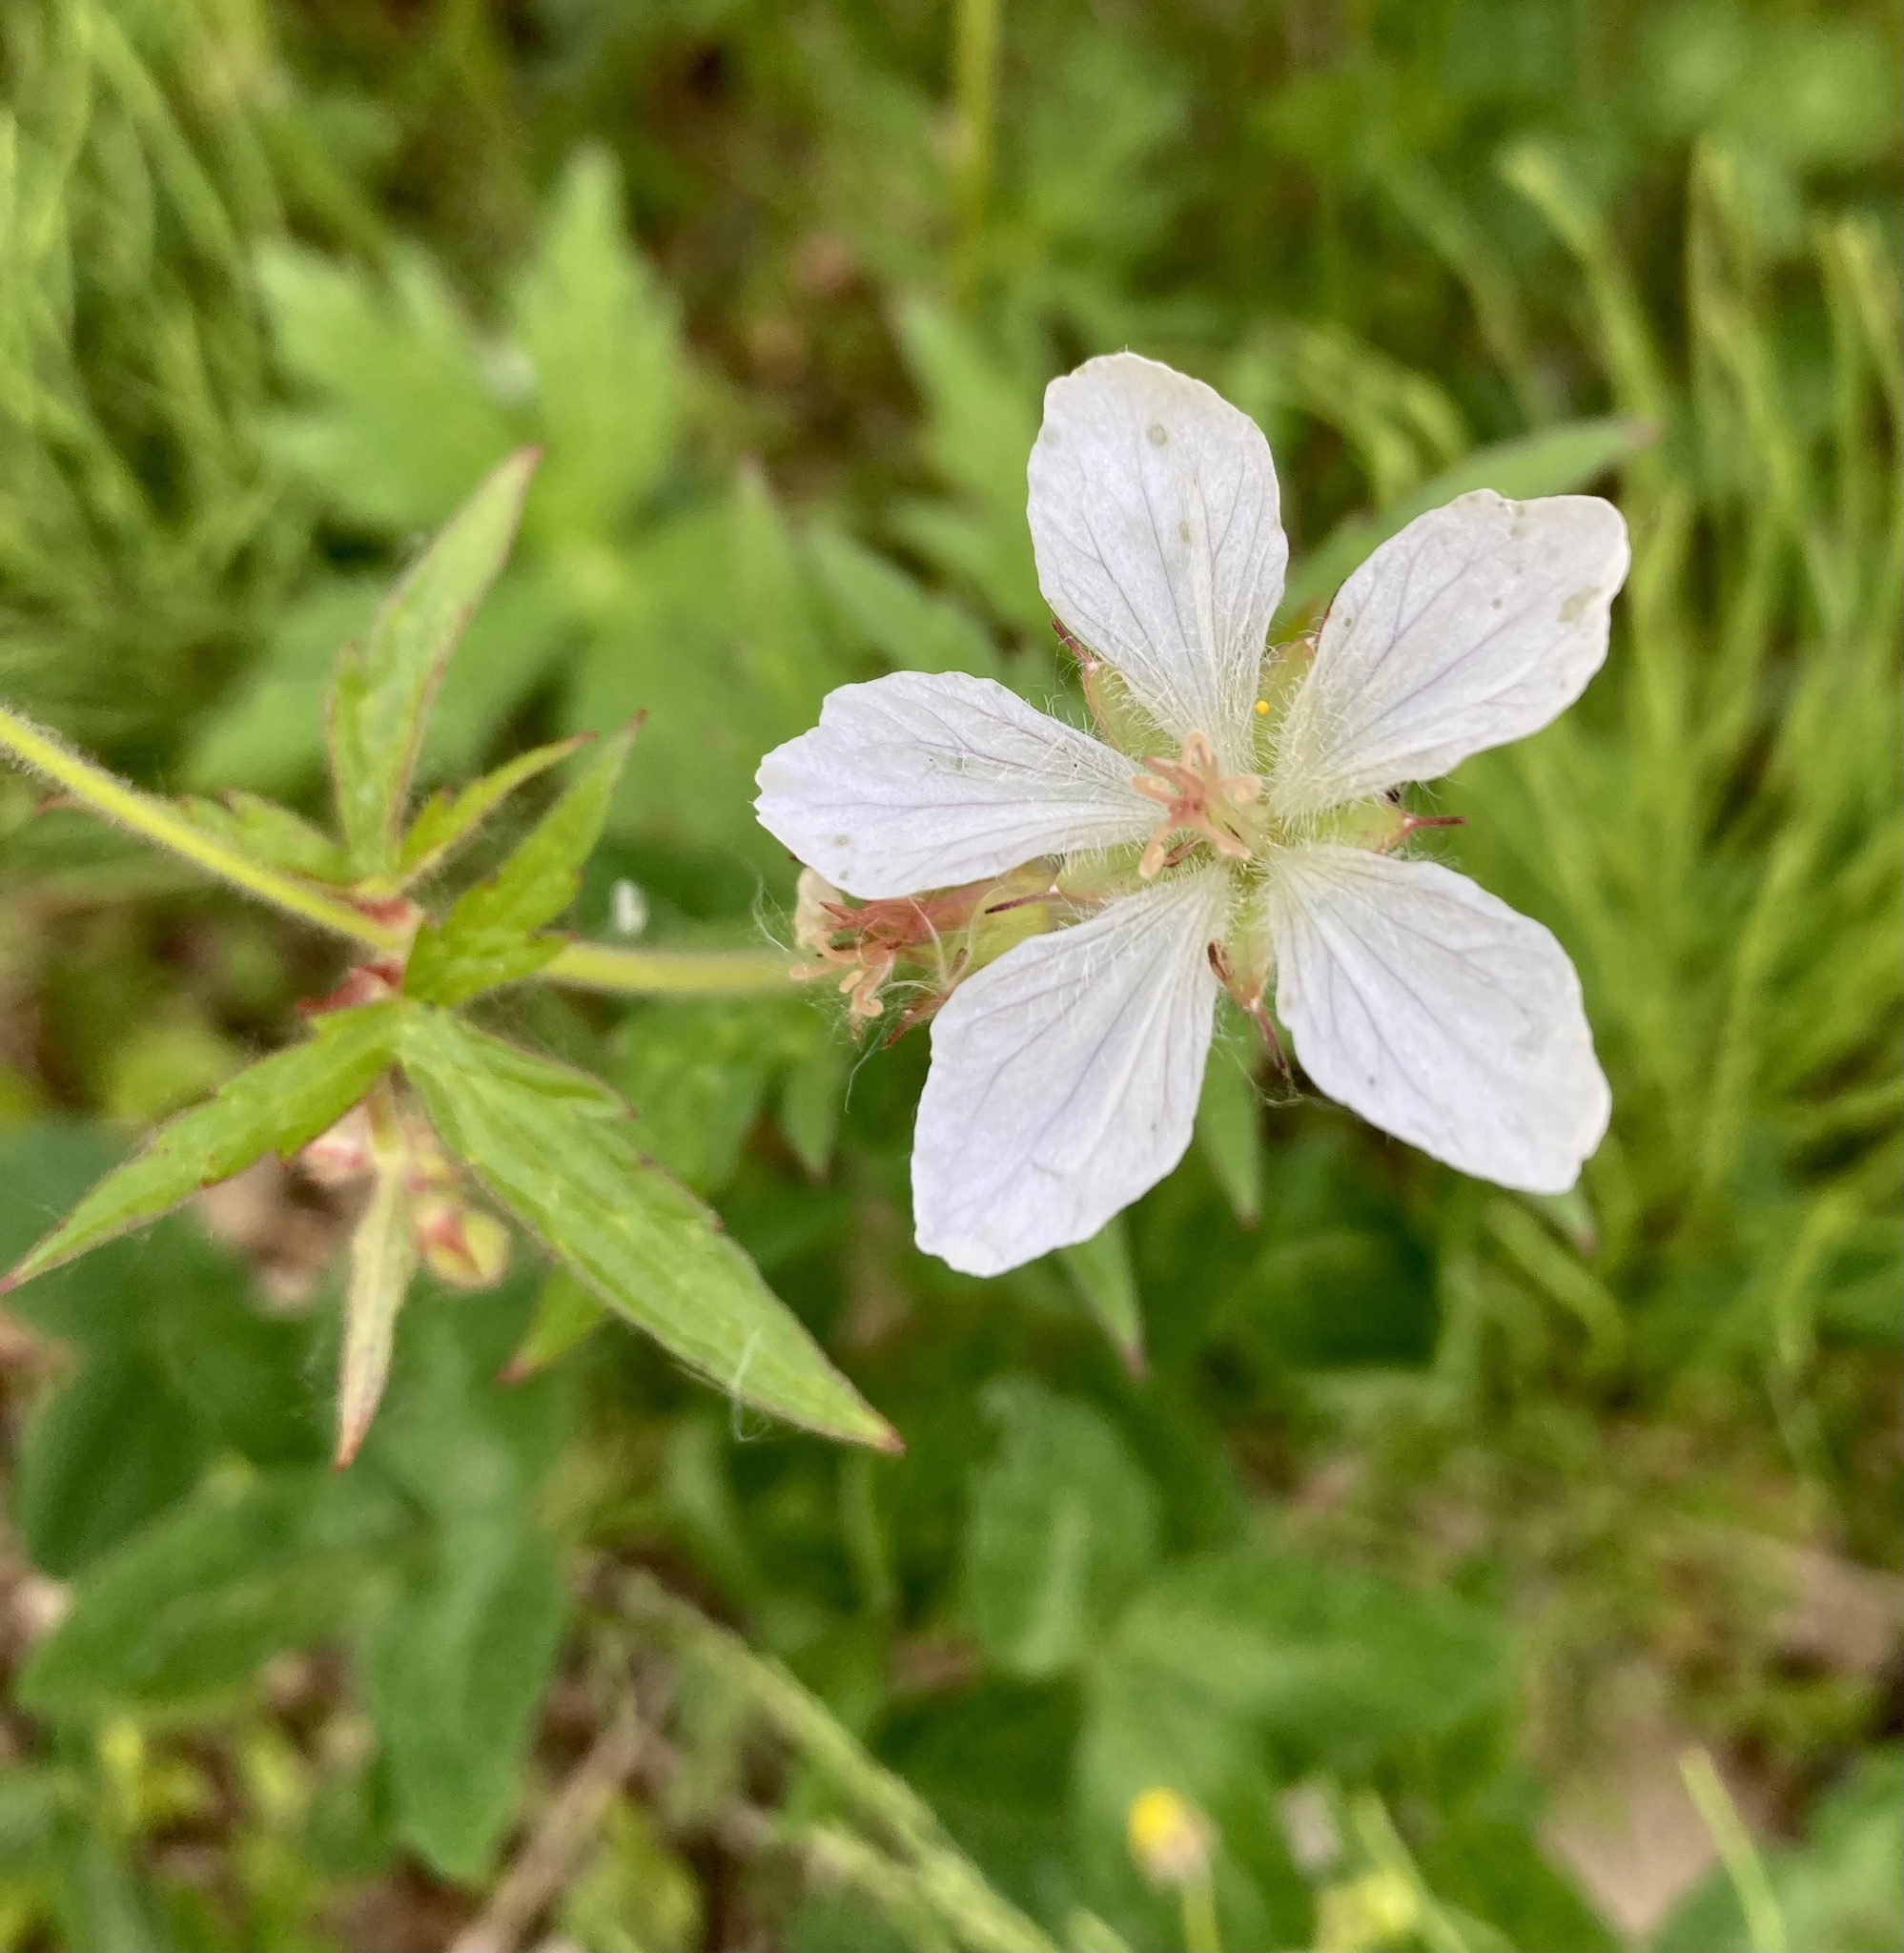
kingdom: Plantae
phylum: Tracheophyta
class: Magnoliopsida
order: Geraniales
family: Geraniaceae
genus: Geranium
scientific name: Geranium richardsonii
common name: Richardson's crane's-bill
